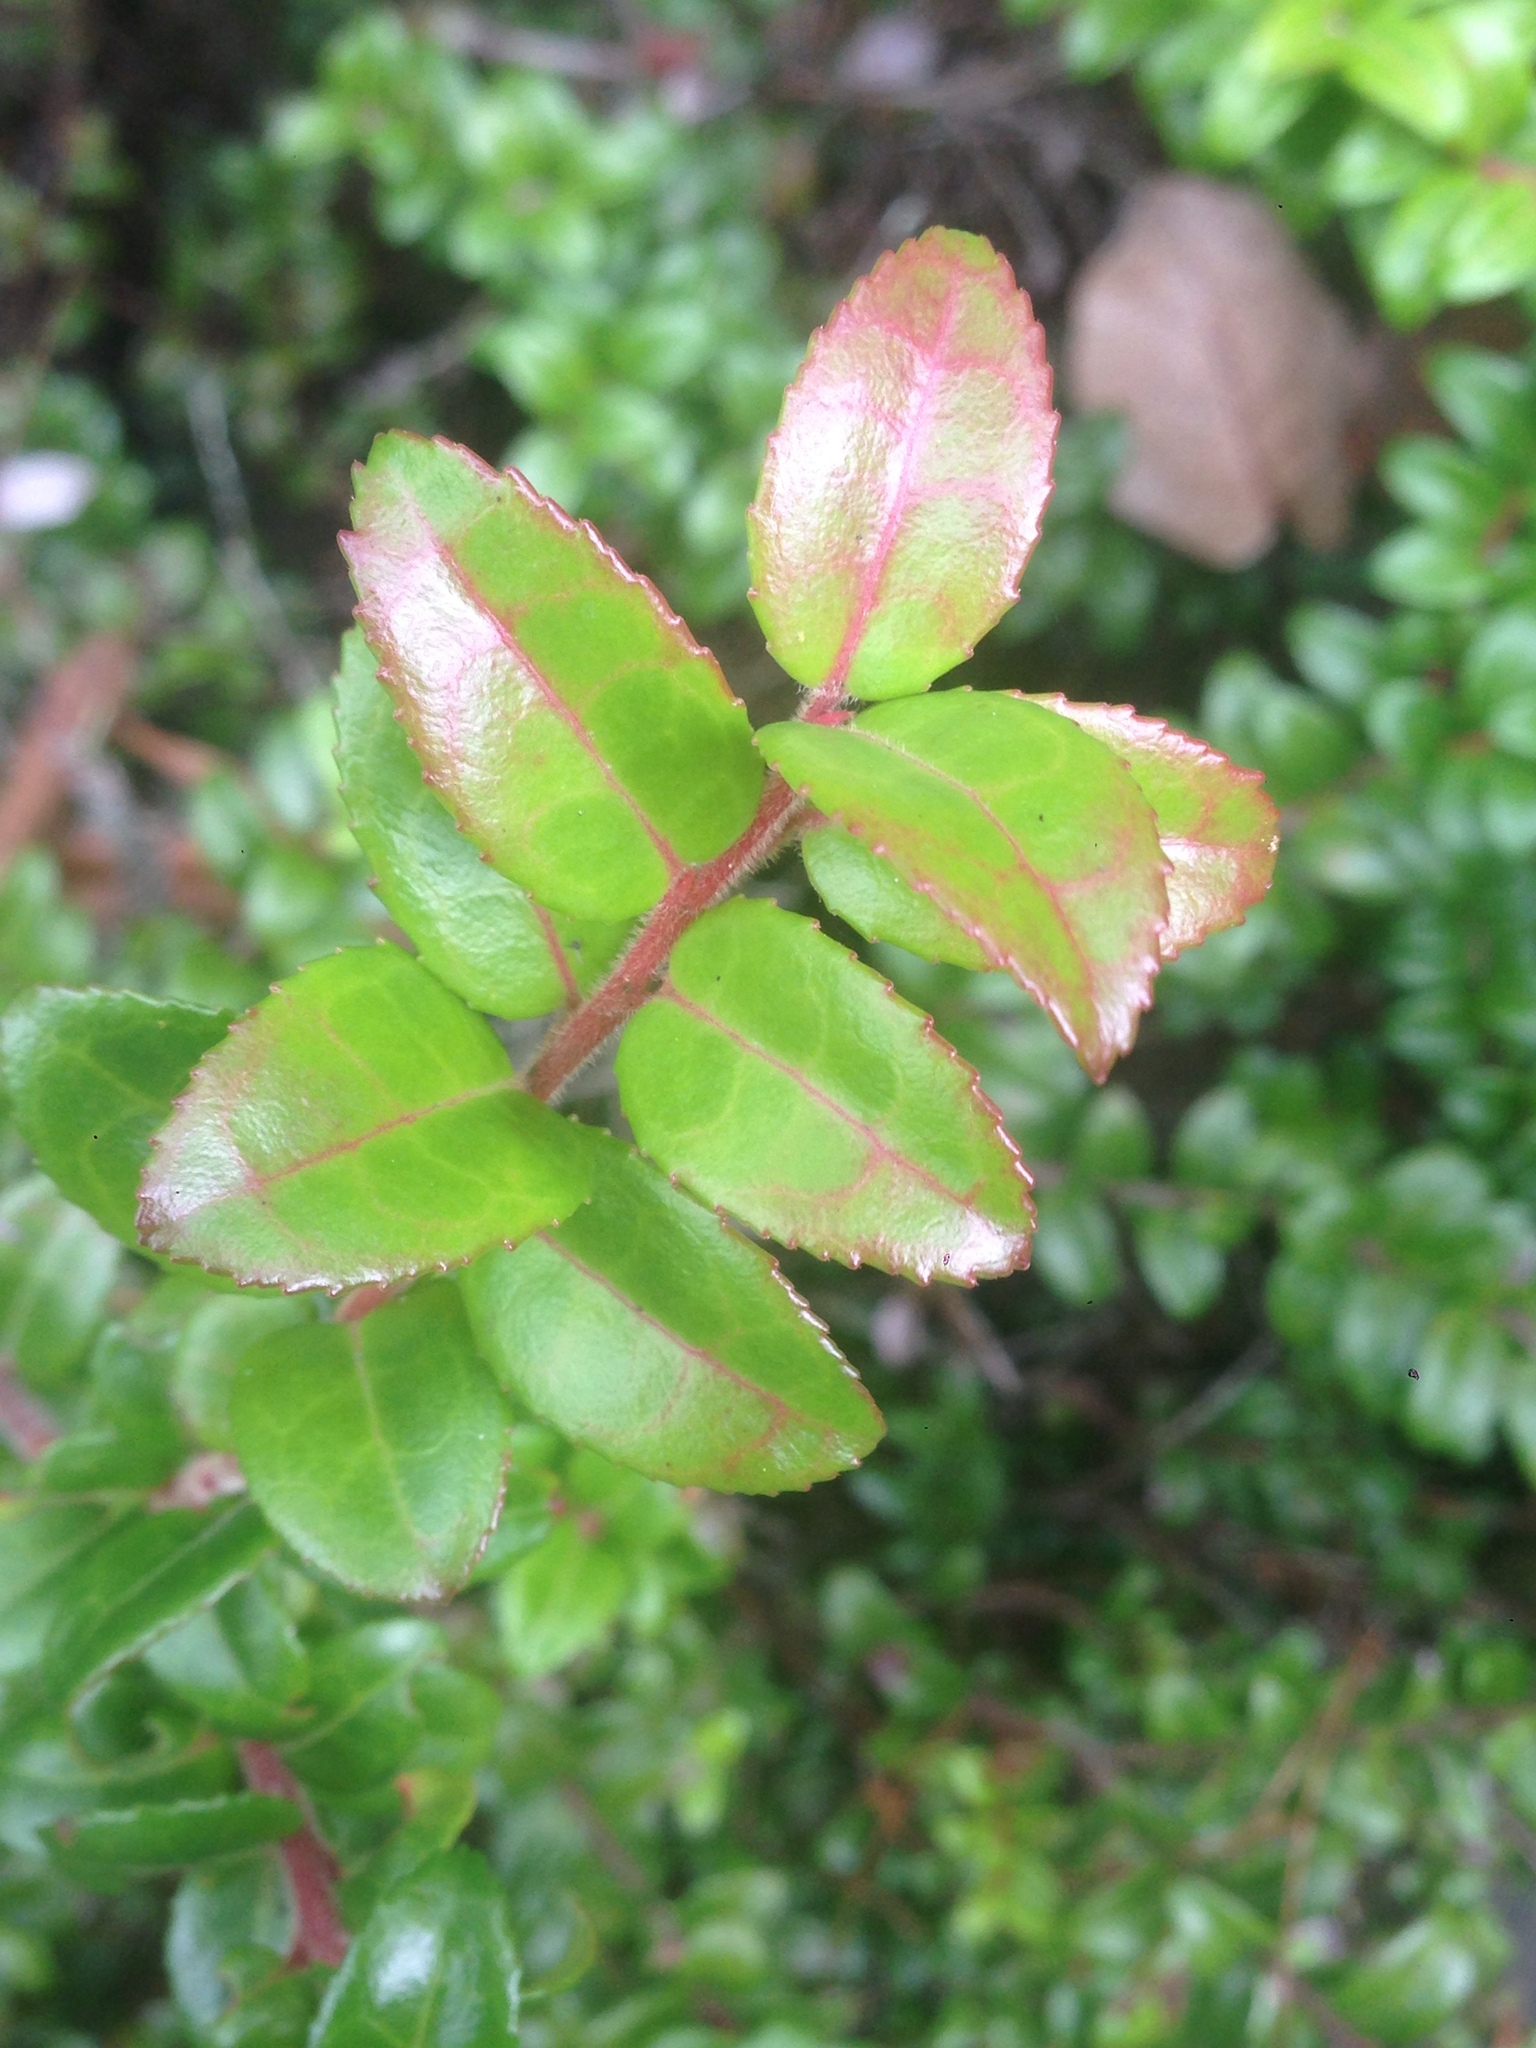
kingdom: Plantae
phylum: Tracheophyta
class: Magnoliopsida
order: Ericales
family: Ericaceae
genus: Vaccinium
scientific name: Vaccinium ovatum
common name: California-huckleberry
